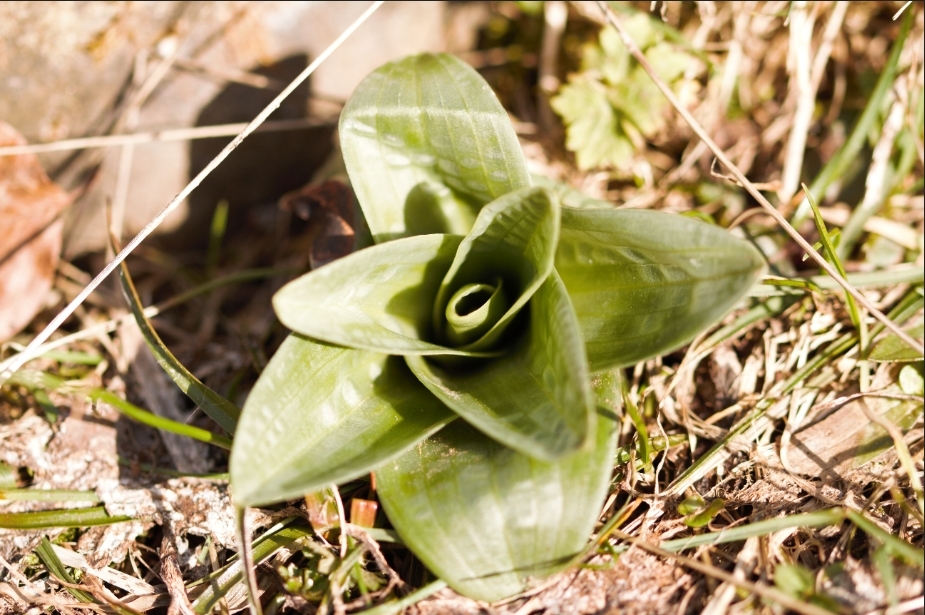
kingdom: Plantae
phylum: Tracheophyta
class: Liliopsida
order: Asparagales
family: Orchidaceae
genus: Himantoglossum
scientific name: Himantoglossum hircinum
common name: Lizard orchid
